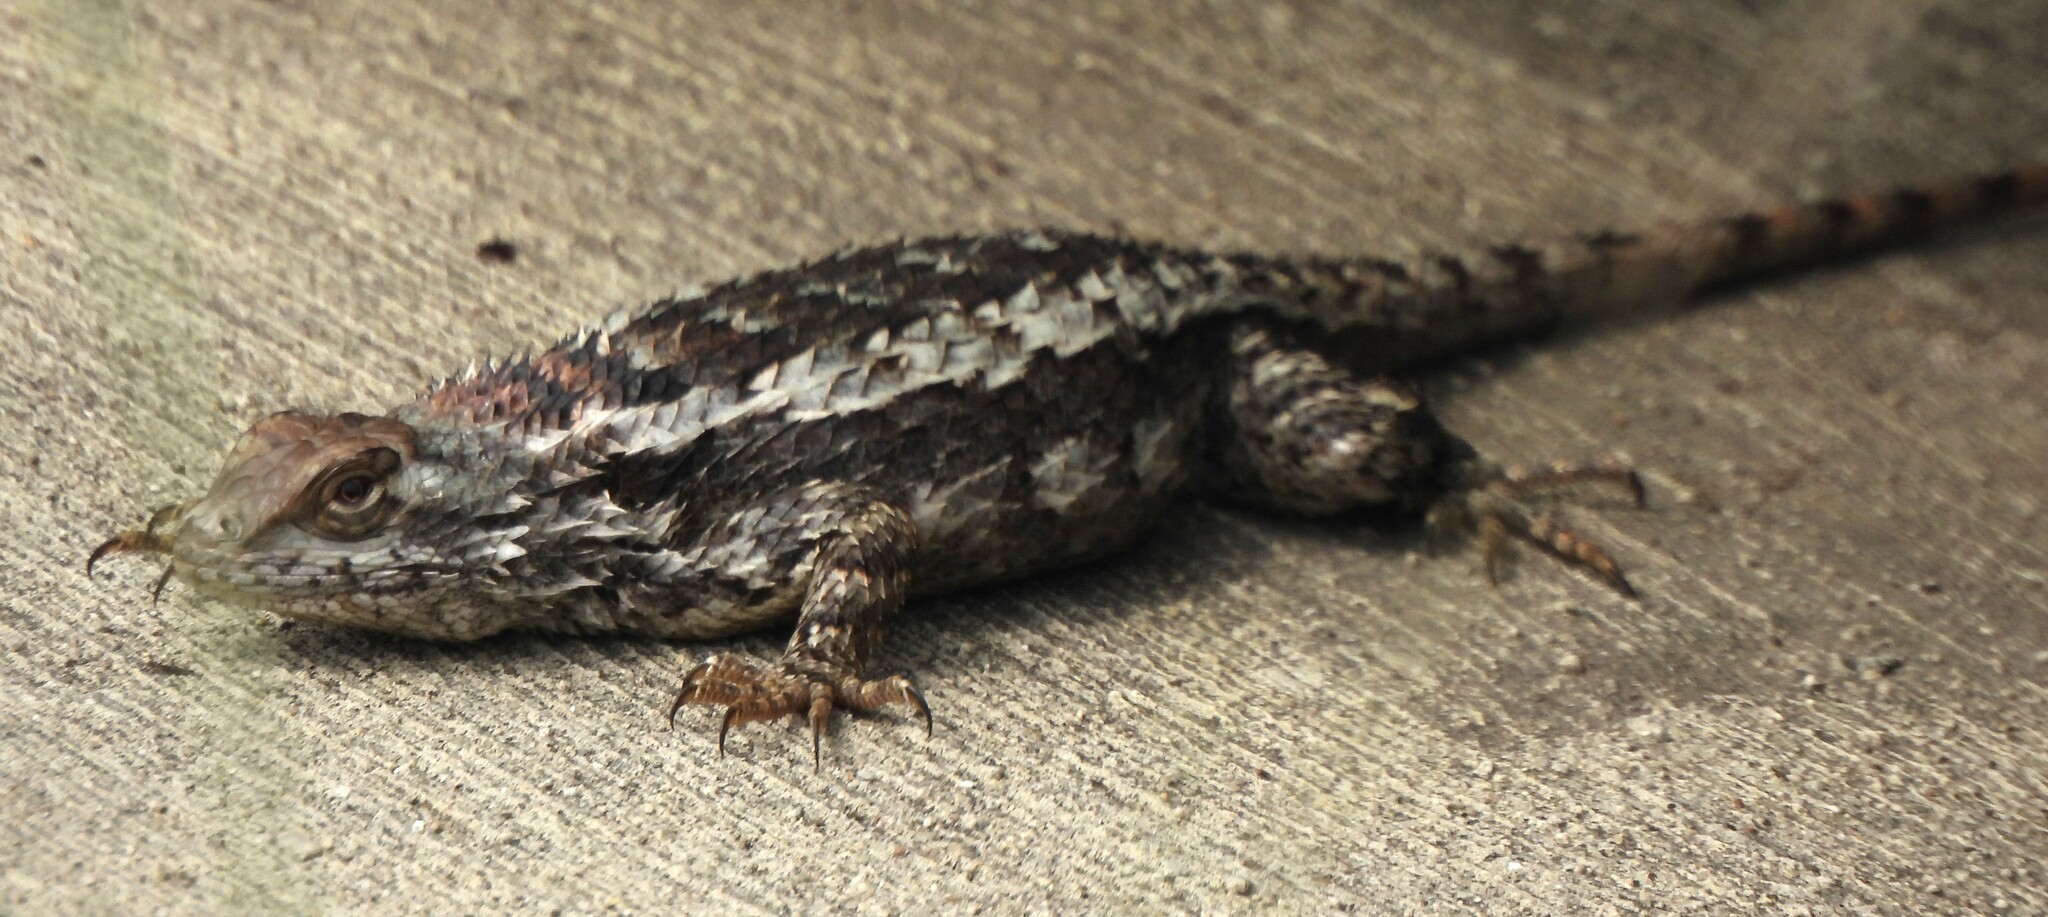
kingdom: Animalia
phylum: Chordata
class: Squamata
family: Phrynosomatidae
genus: Sceloporus
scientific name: Sceloporus olivaceus
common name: Texas spiny lizard
